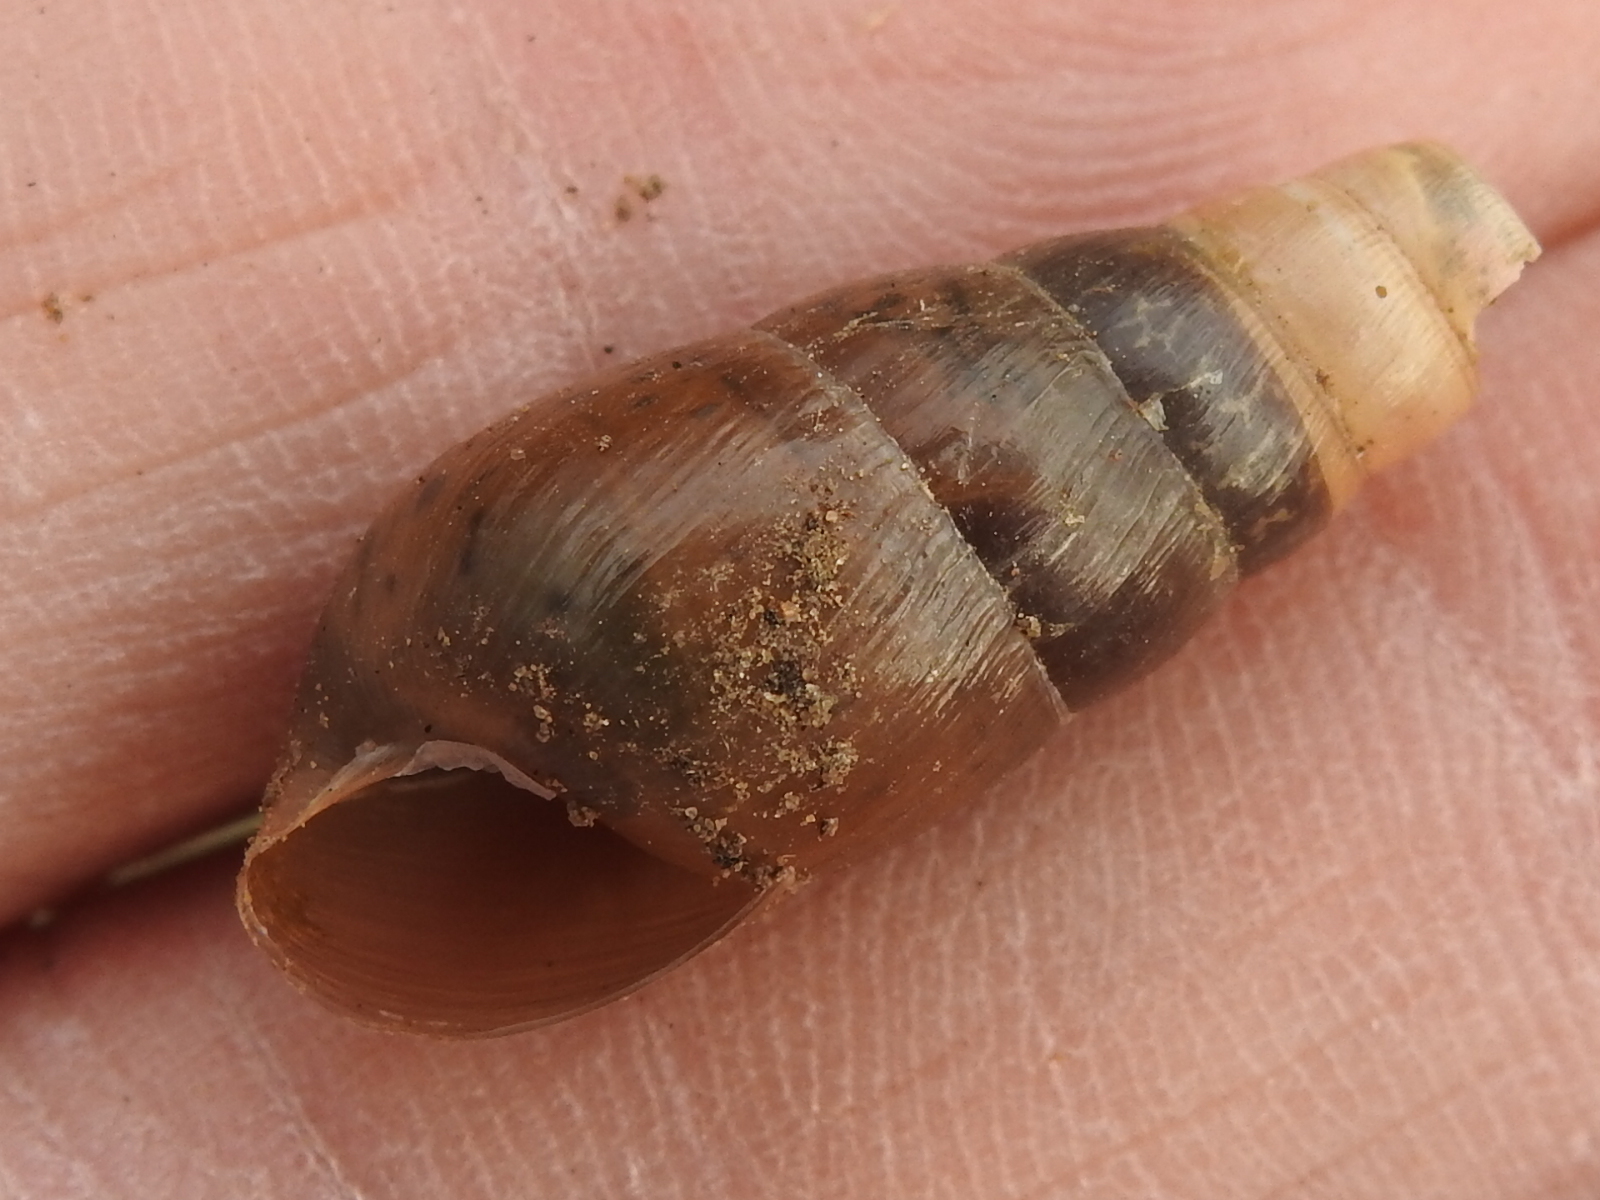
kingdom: Animalia
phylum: Mollusca
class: Gastropoda
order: Stylommatophora
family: Achatinidae
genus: Rumina
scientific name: Rumina decollata
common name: Decollate snail
